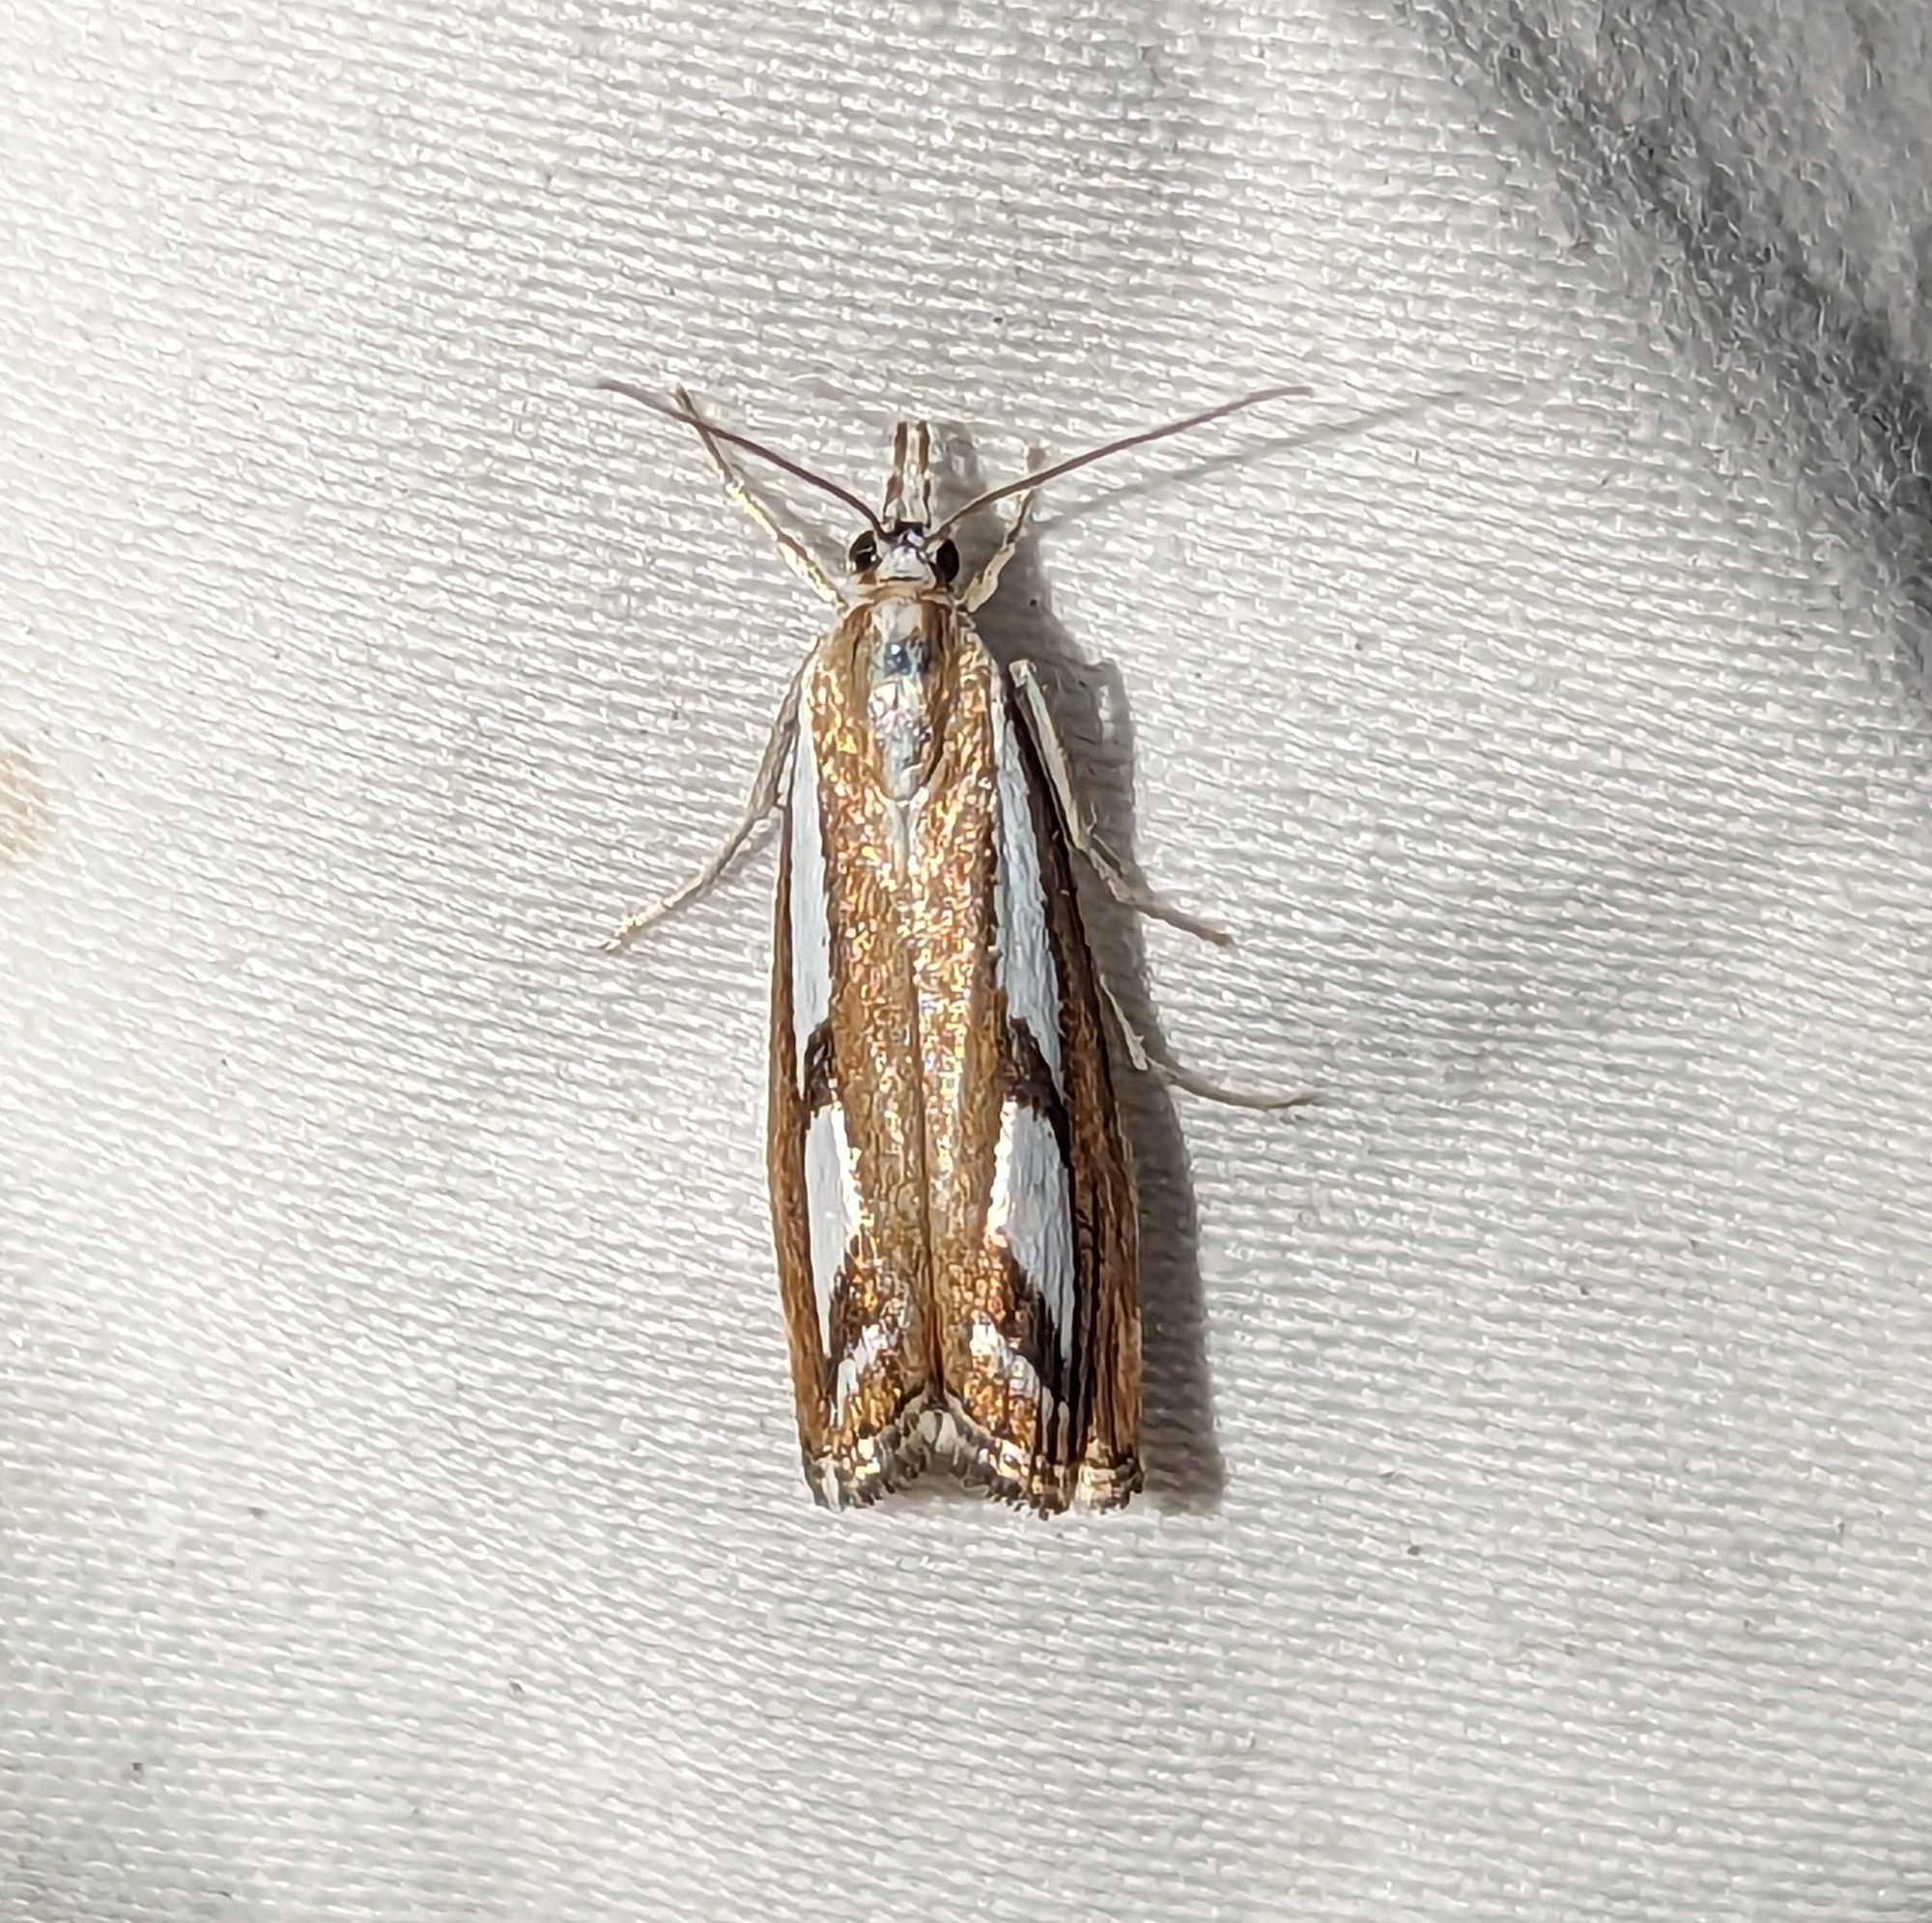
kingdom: Animalia
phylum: Arthropoda
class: Insecta
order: Lepidoptera
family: Crambidae
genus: Catoptria
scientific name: Catoptria latiradiellus
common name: Two-banded catoptria moth
